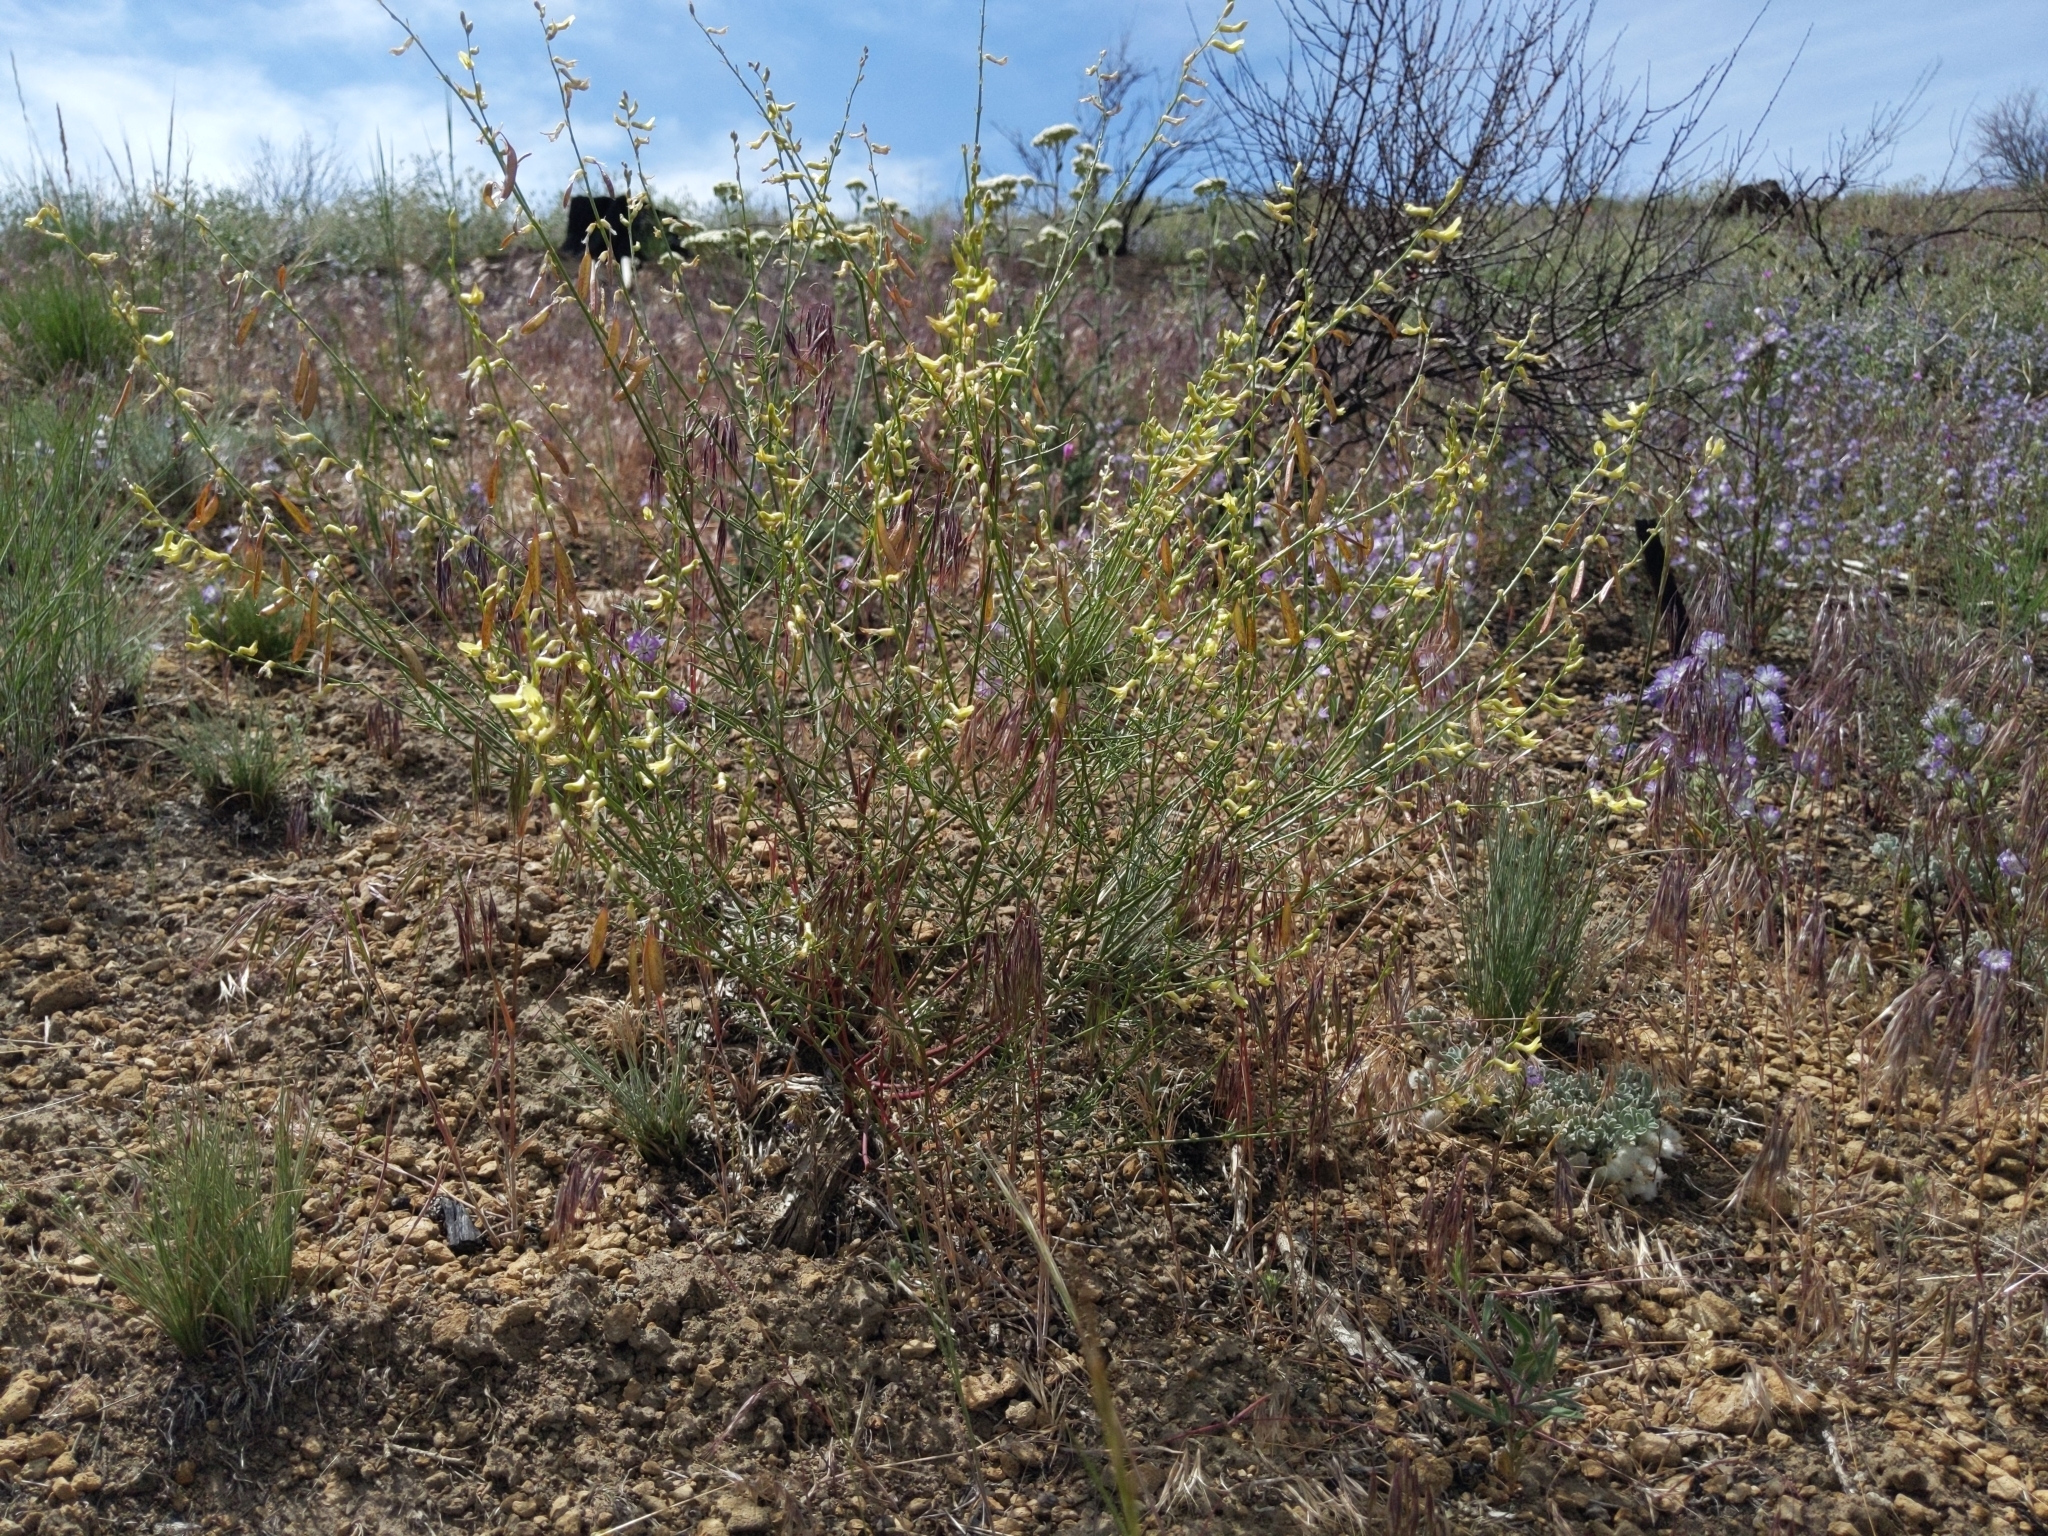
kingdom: Plantae
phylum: Tracheophyta
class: Magnoliopsida
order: Fabales
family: Fabaceae
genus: Astragalus
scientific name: Astragalus filipes
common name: Basalt milk-vetch
